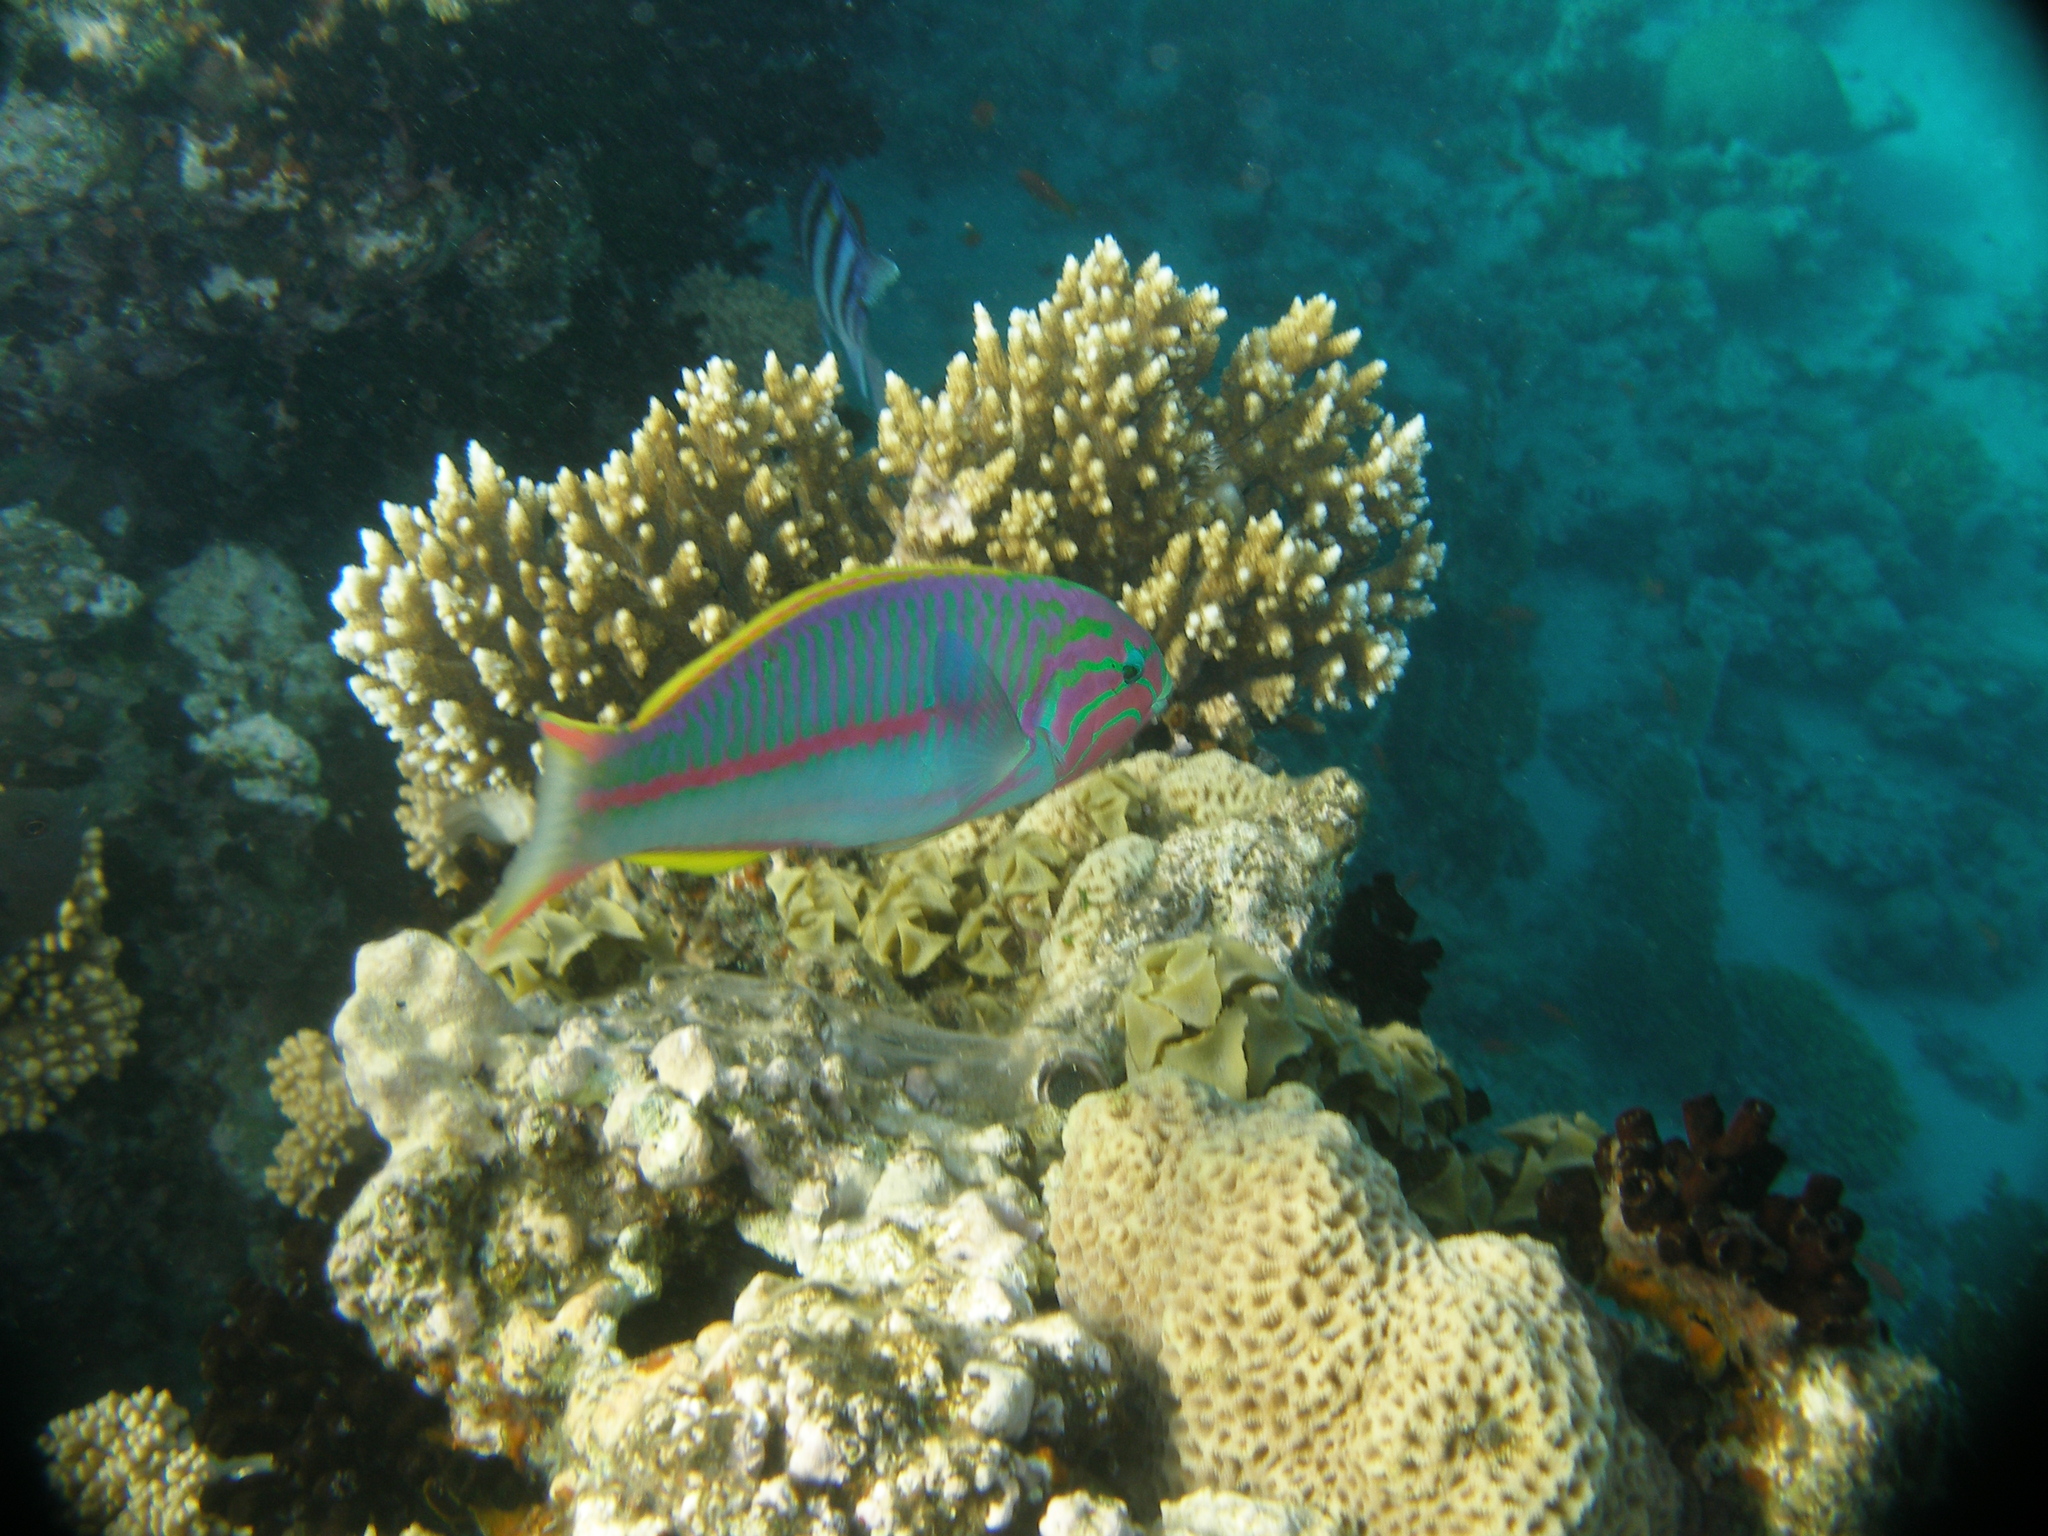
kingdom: Animalia
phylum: Chordata
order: Perciformes
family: Labridae
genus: Thalassoma
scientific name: Thalassoma rueppellii
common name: Klunzinger's wrasse
